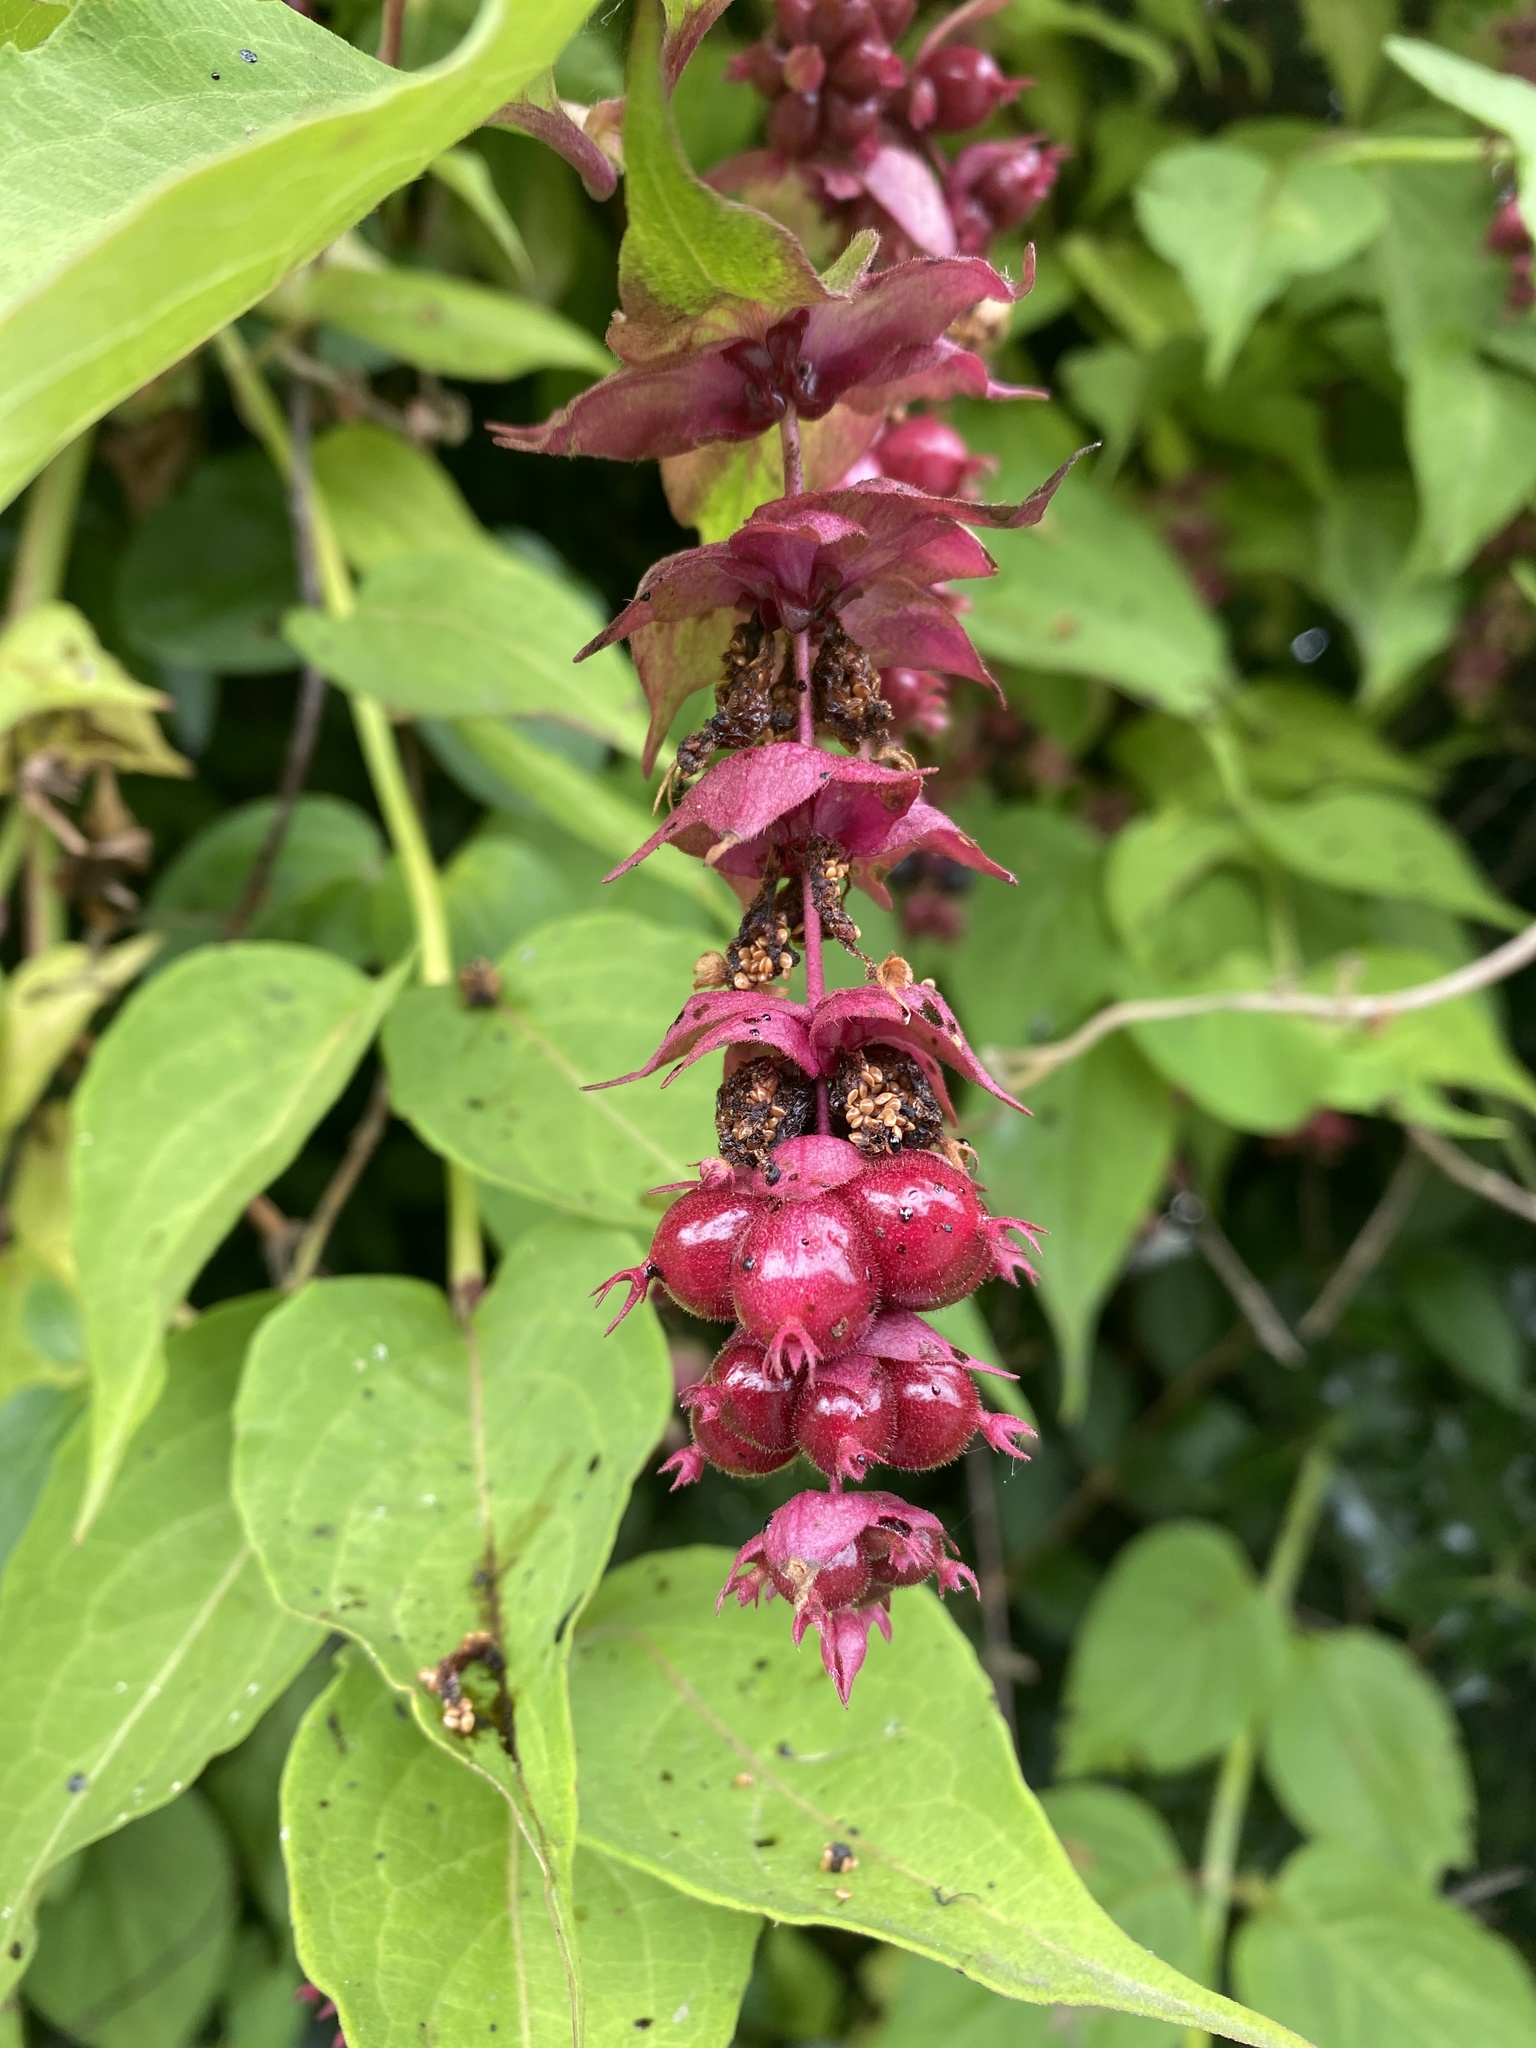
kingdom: Plantae
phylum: Tracheophyta
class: Magnoliopsida
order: Dipsacales
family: Caprifoliaceae
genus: Leycesteria
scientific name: Leycesteria formosa
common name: Himalayan honeysuckle
